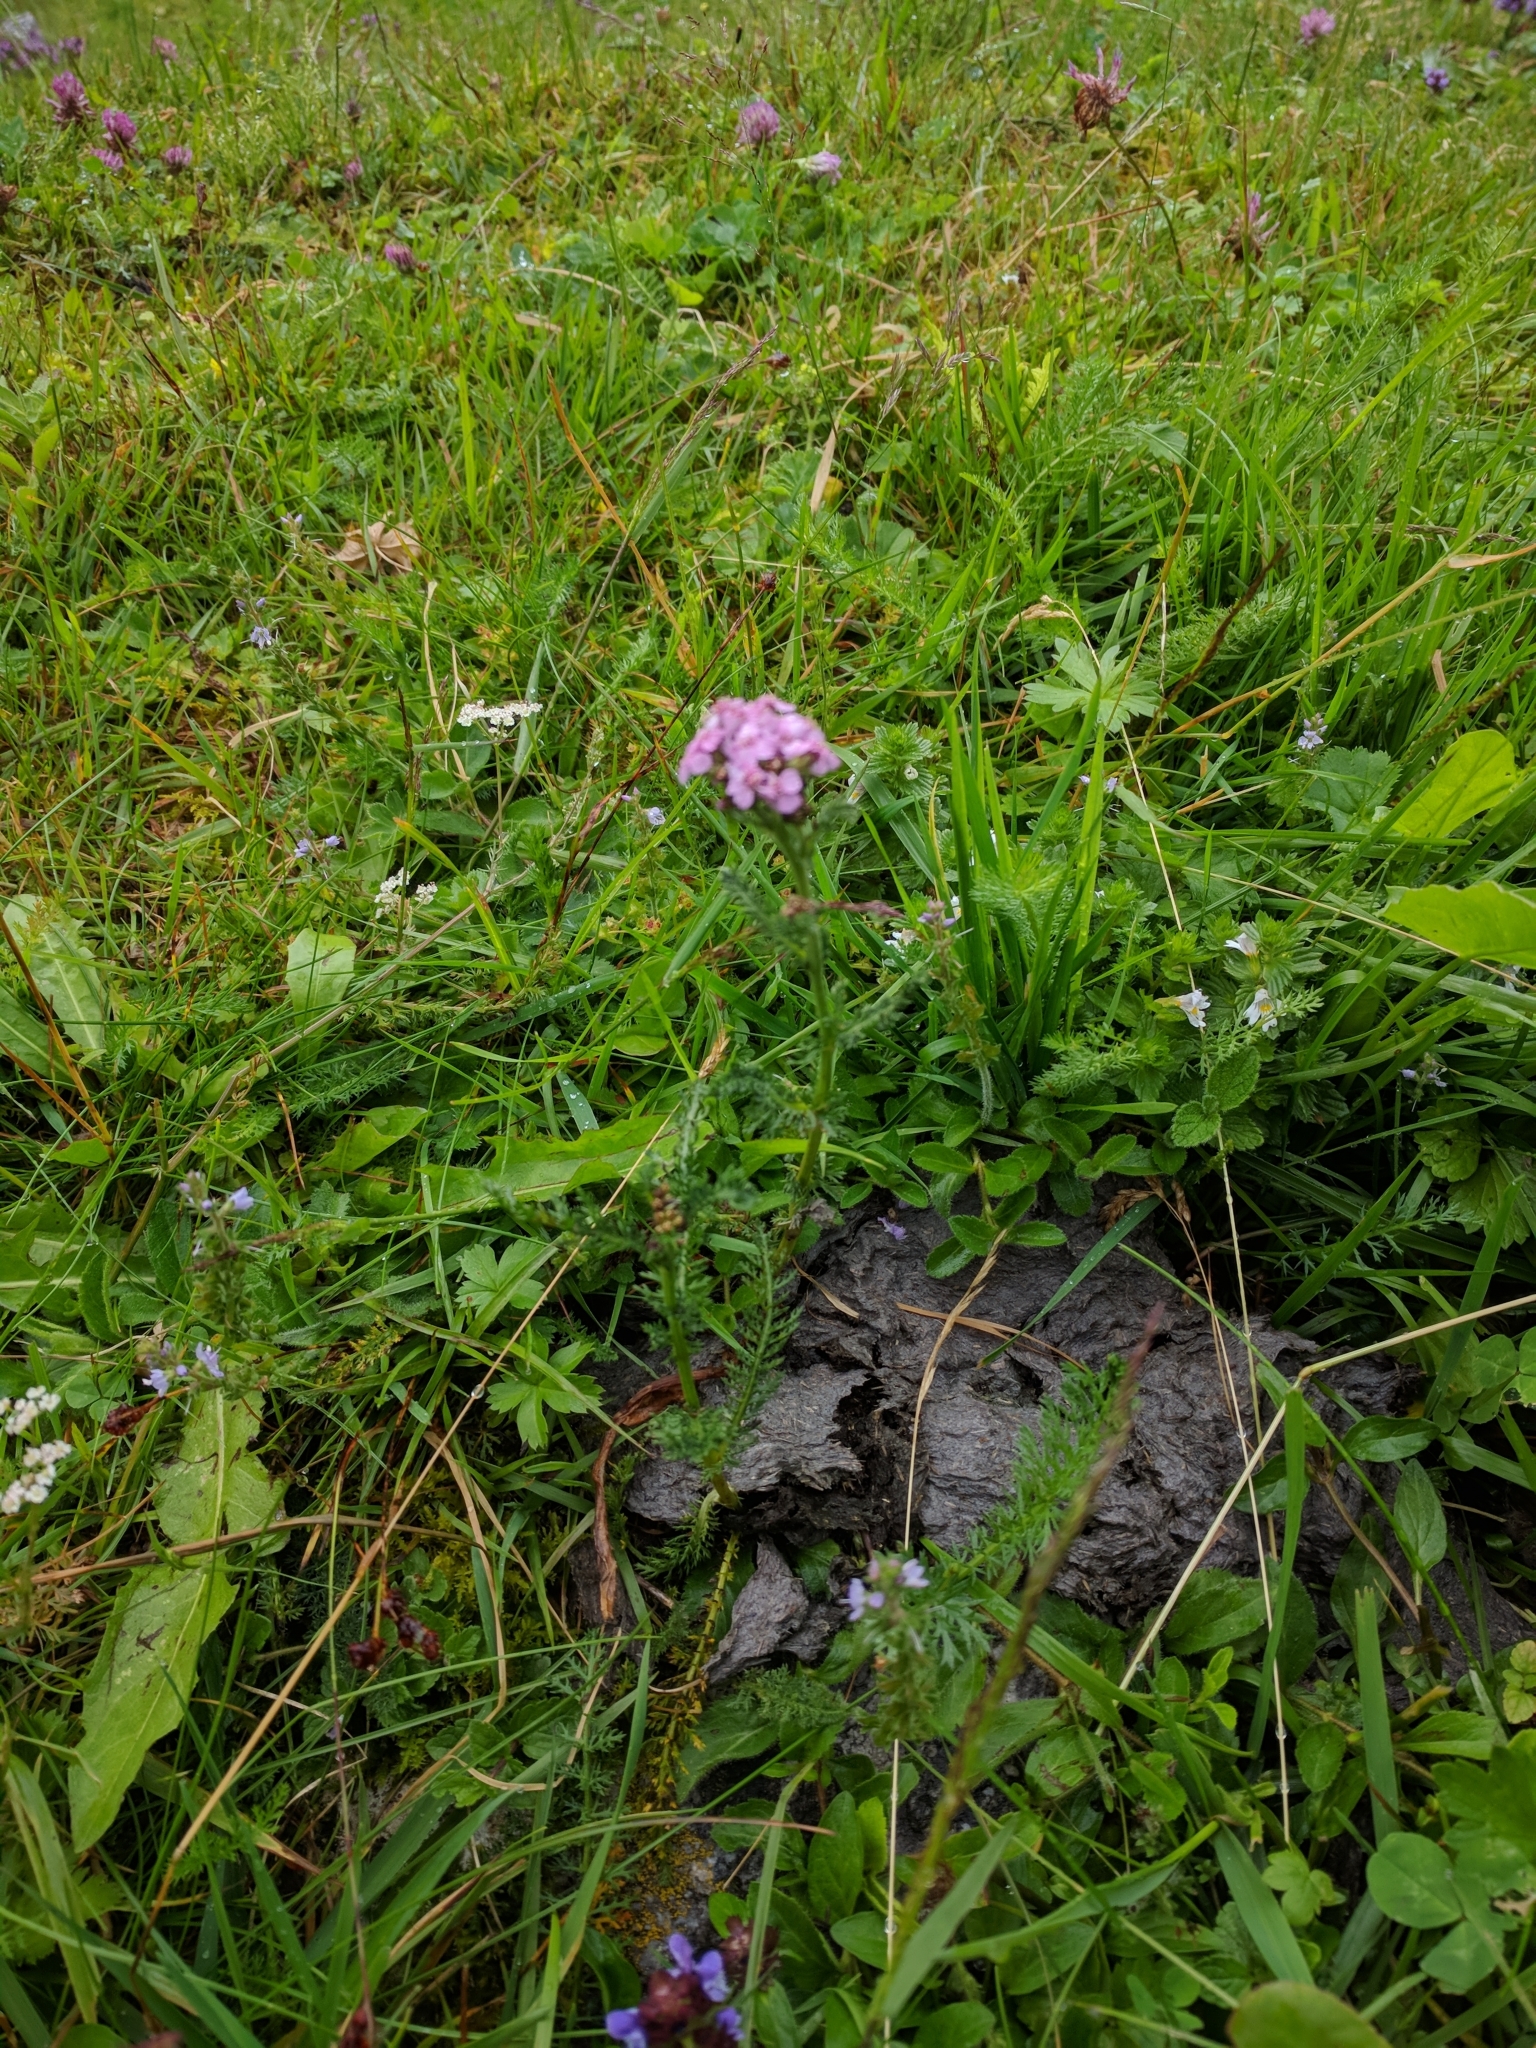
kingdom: Plantae
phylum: Tracheophyta
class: Magnoliopsida
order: Asterales
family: Asteraceae
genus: Achillea
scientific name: Achillea
